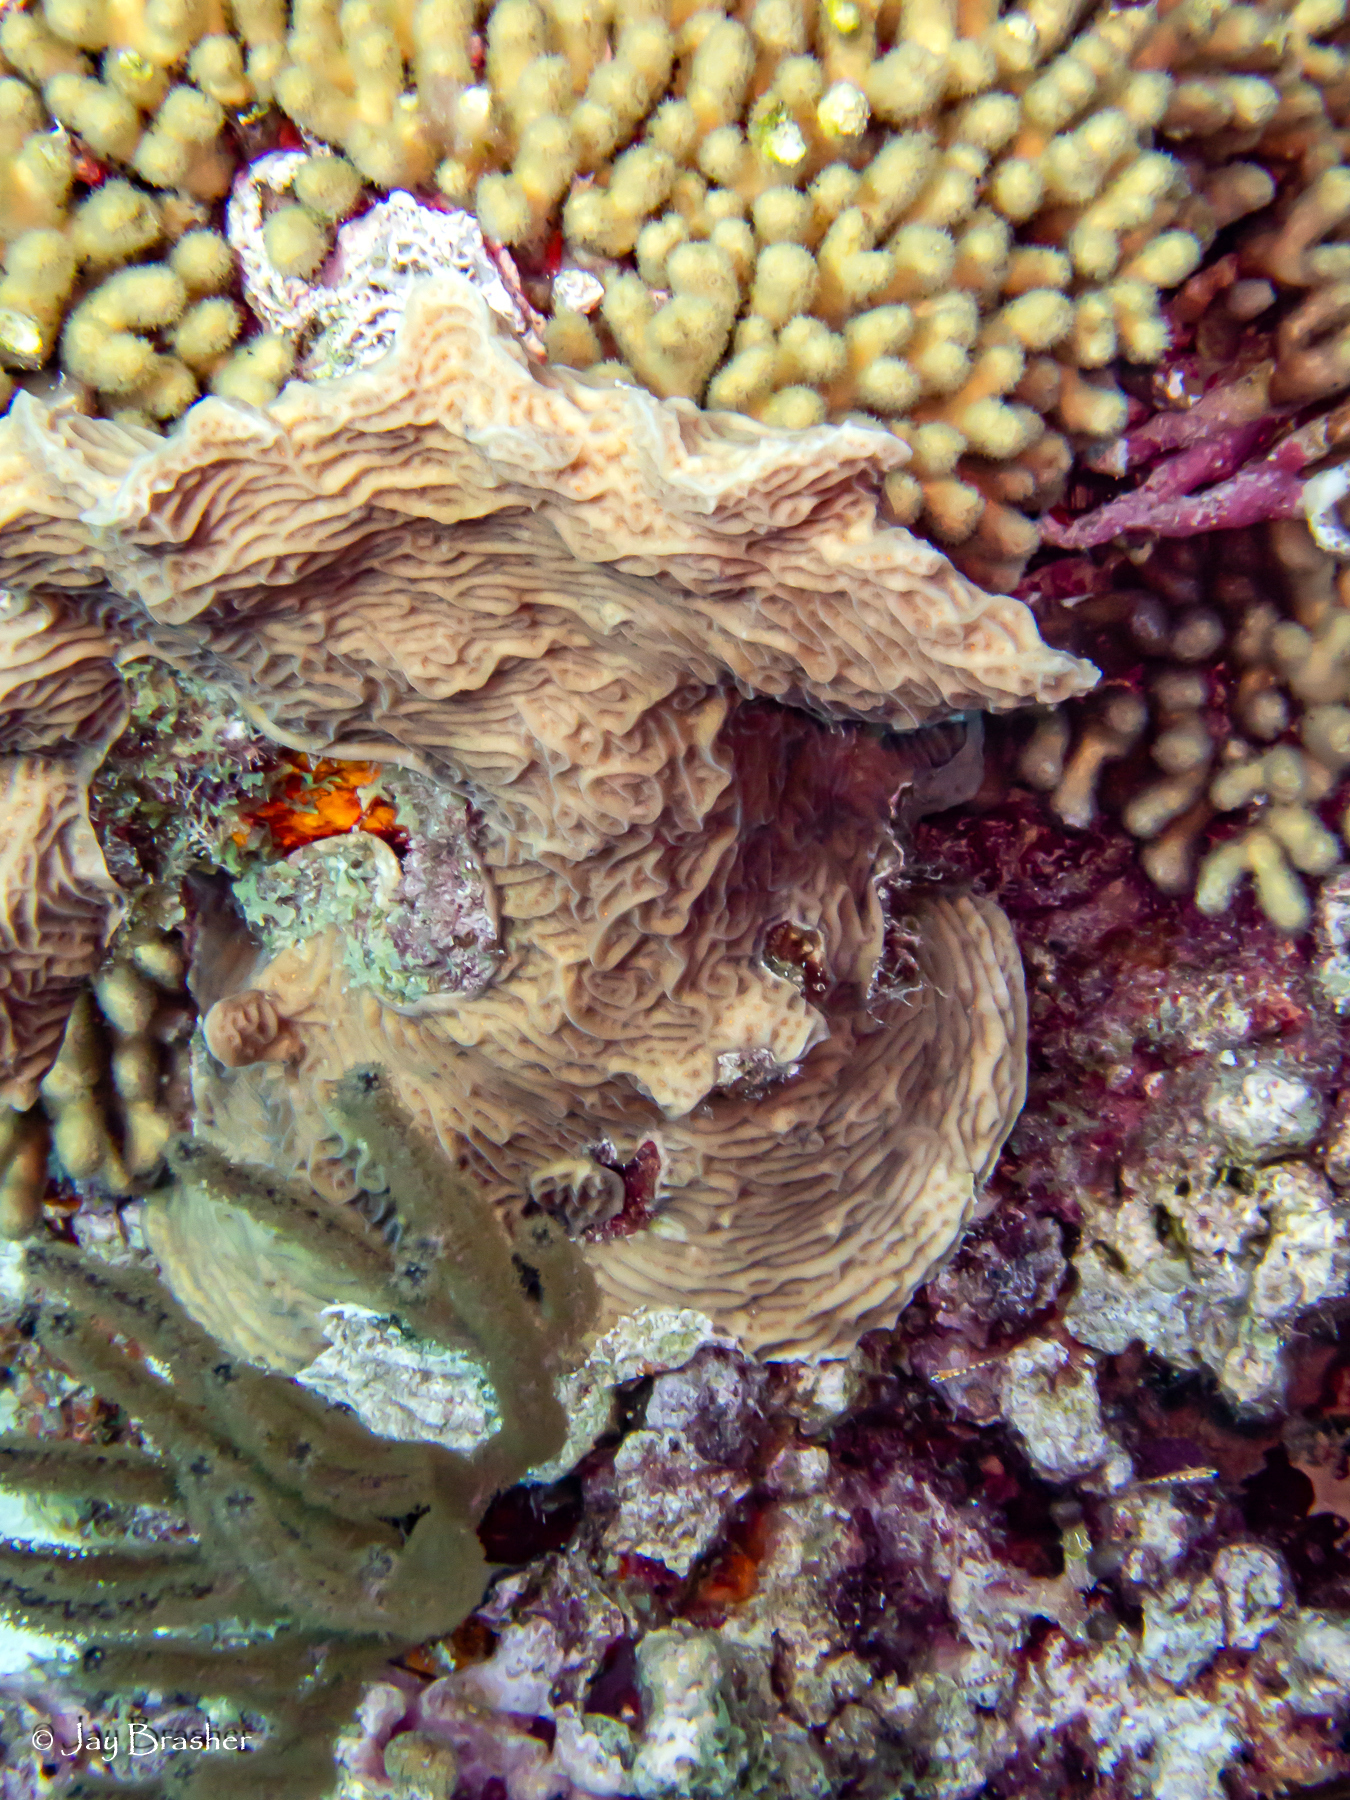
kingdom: Animalia
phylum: Cnidaria
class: Anthozoa
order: Scleractinia
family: Agariciidae
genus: Agaricia
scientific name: Agaricia agaricites
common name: Lettuce coral
